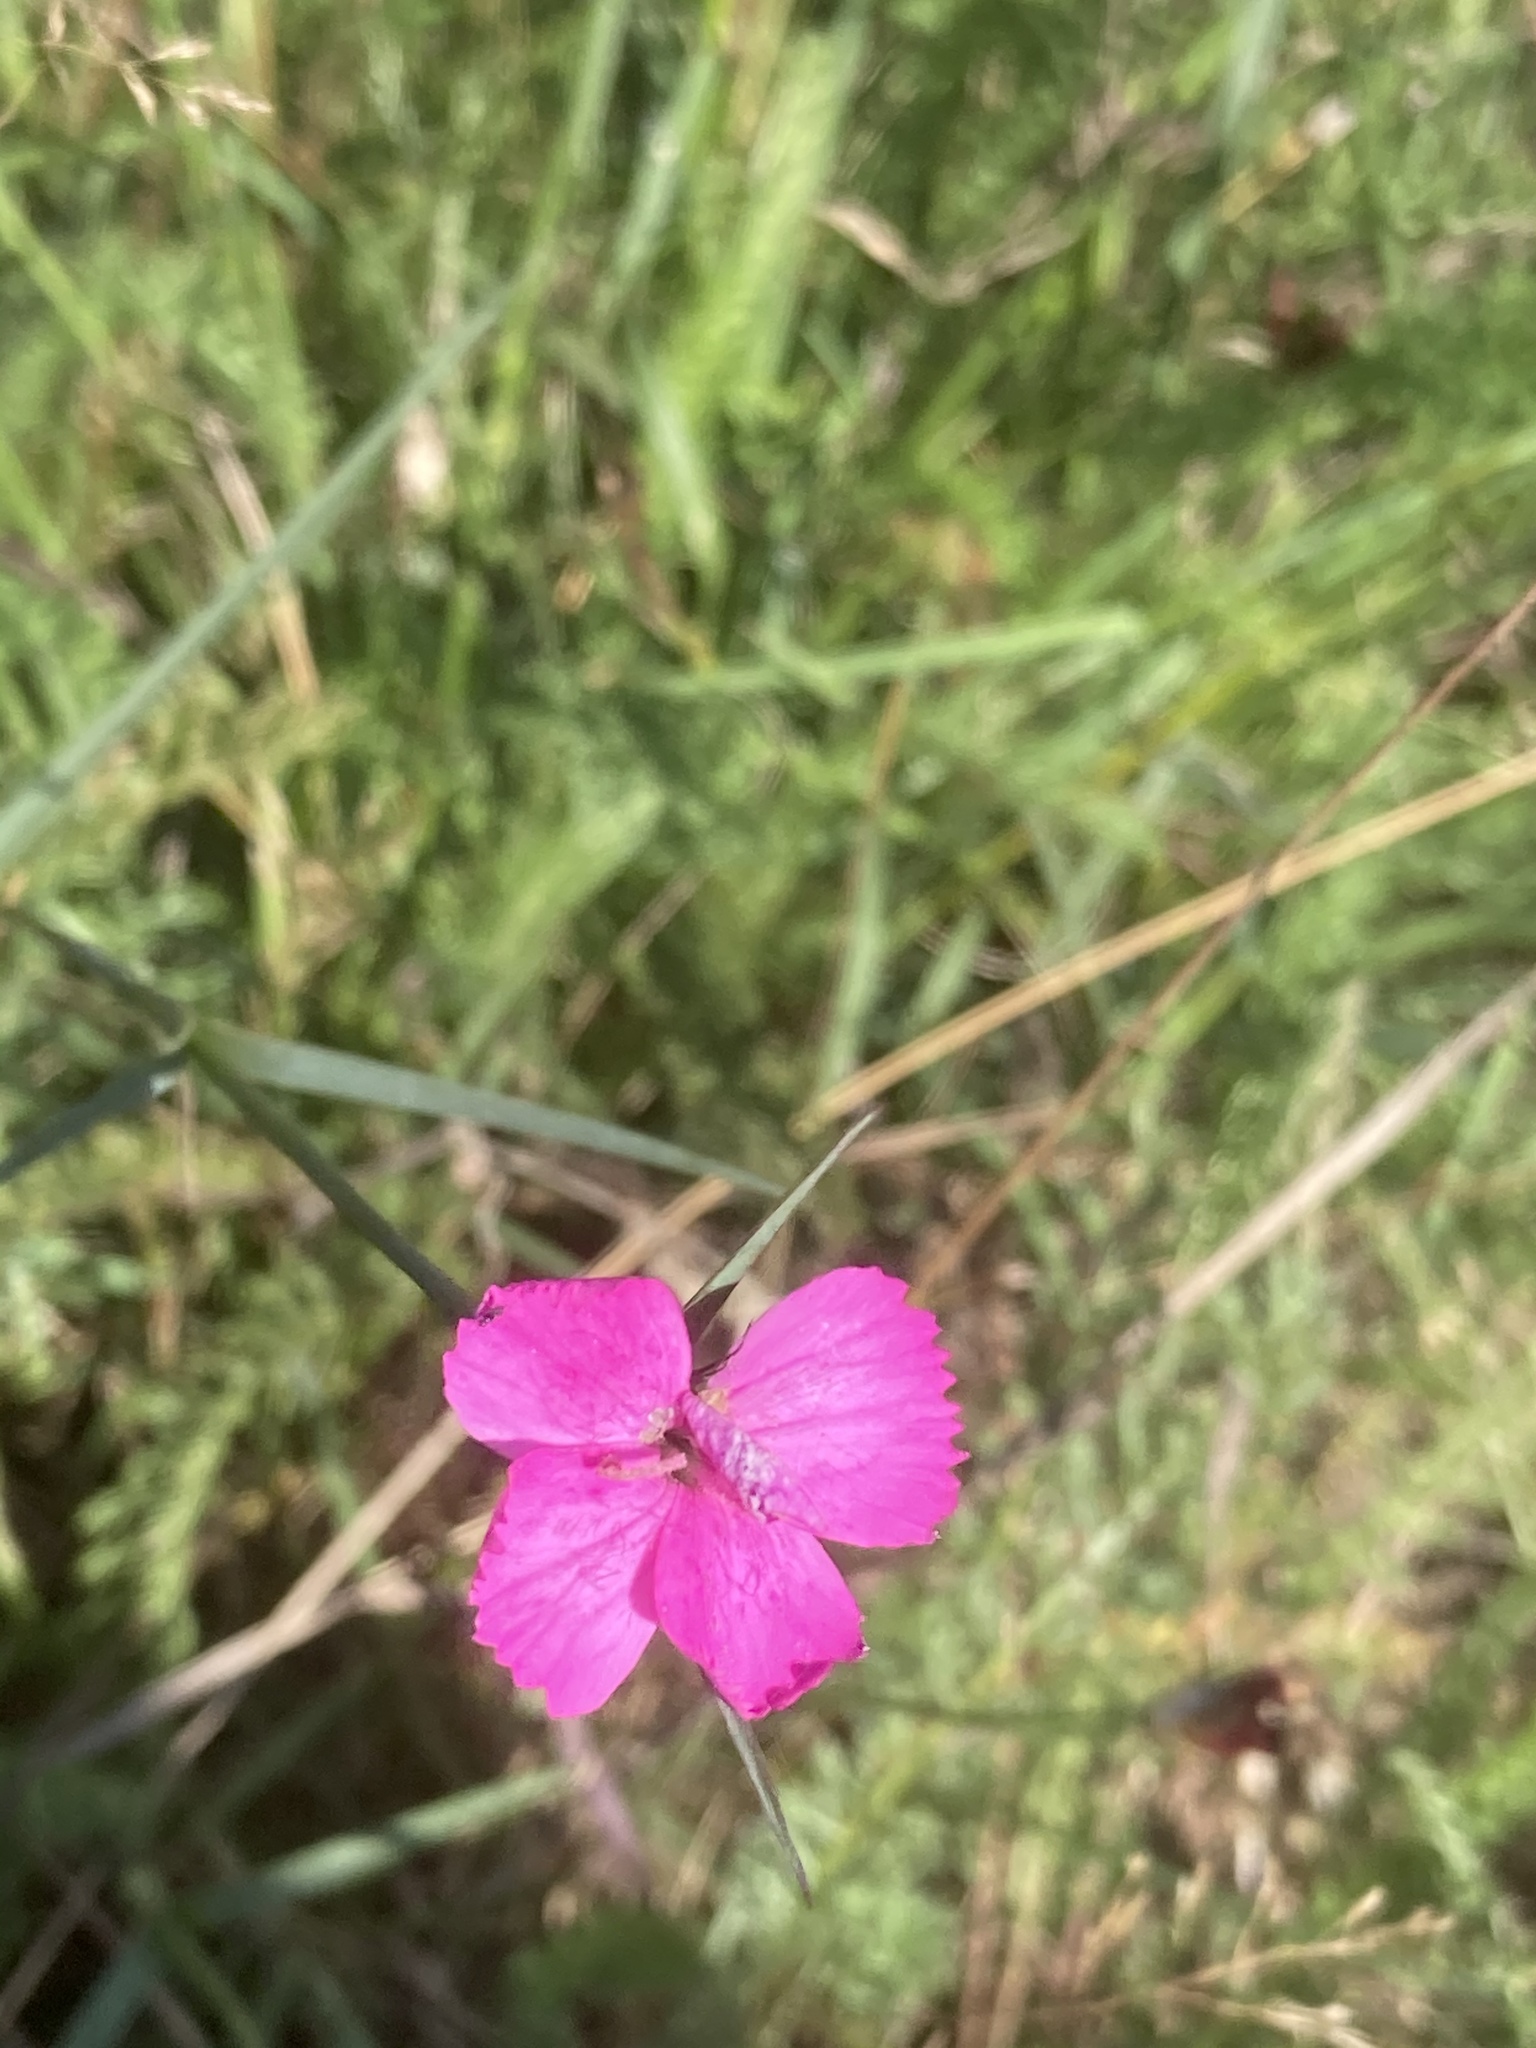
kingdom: Plantae
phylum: Tracheophyta
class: Magnoliopsida
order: Caryophyllales
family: Caryophyllaceae
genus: Dianthus
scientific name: Dianthus carthusianorum
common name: Carthusian pink
